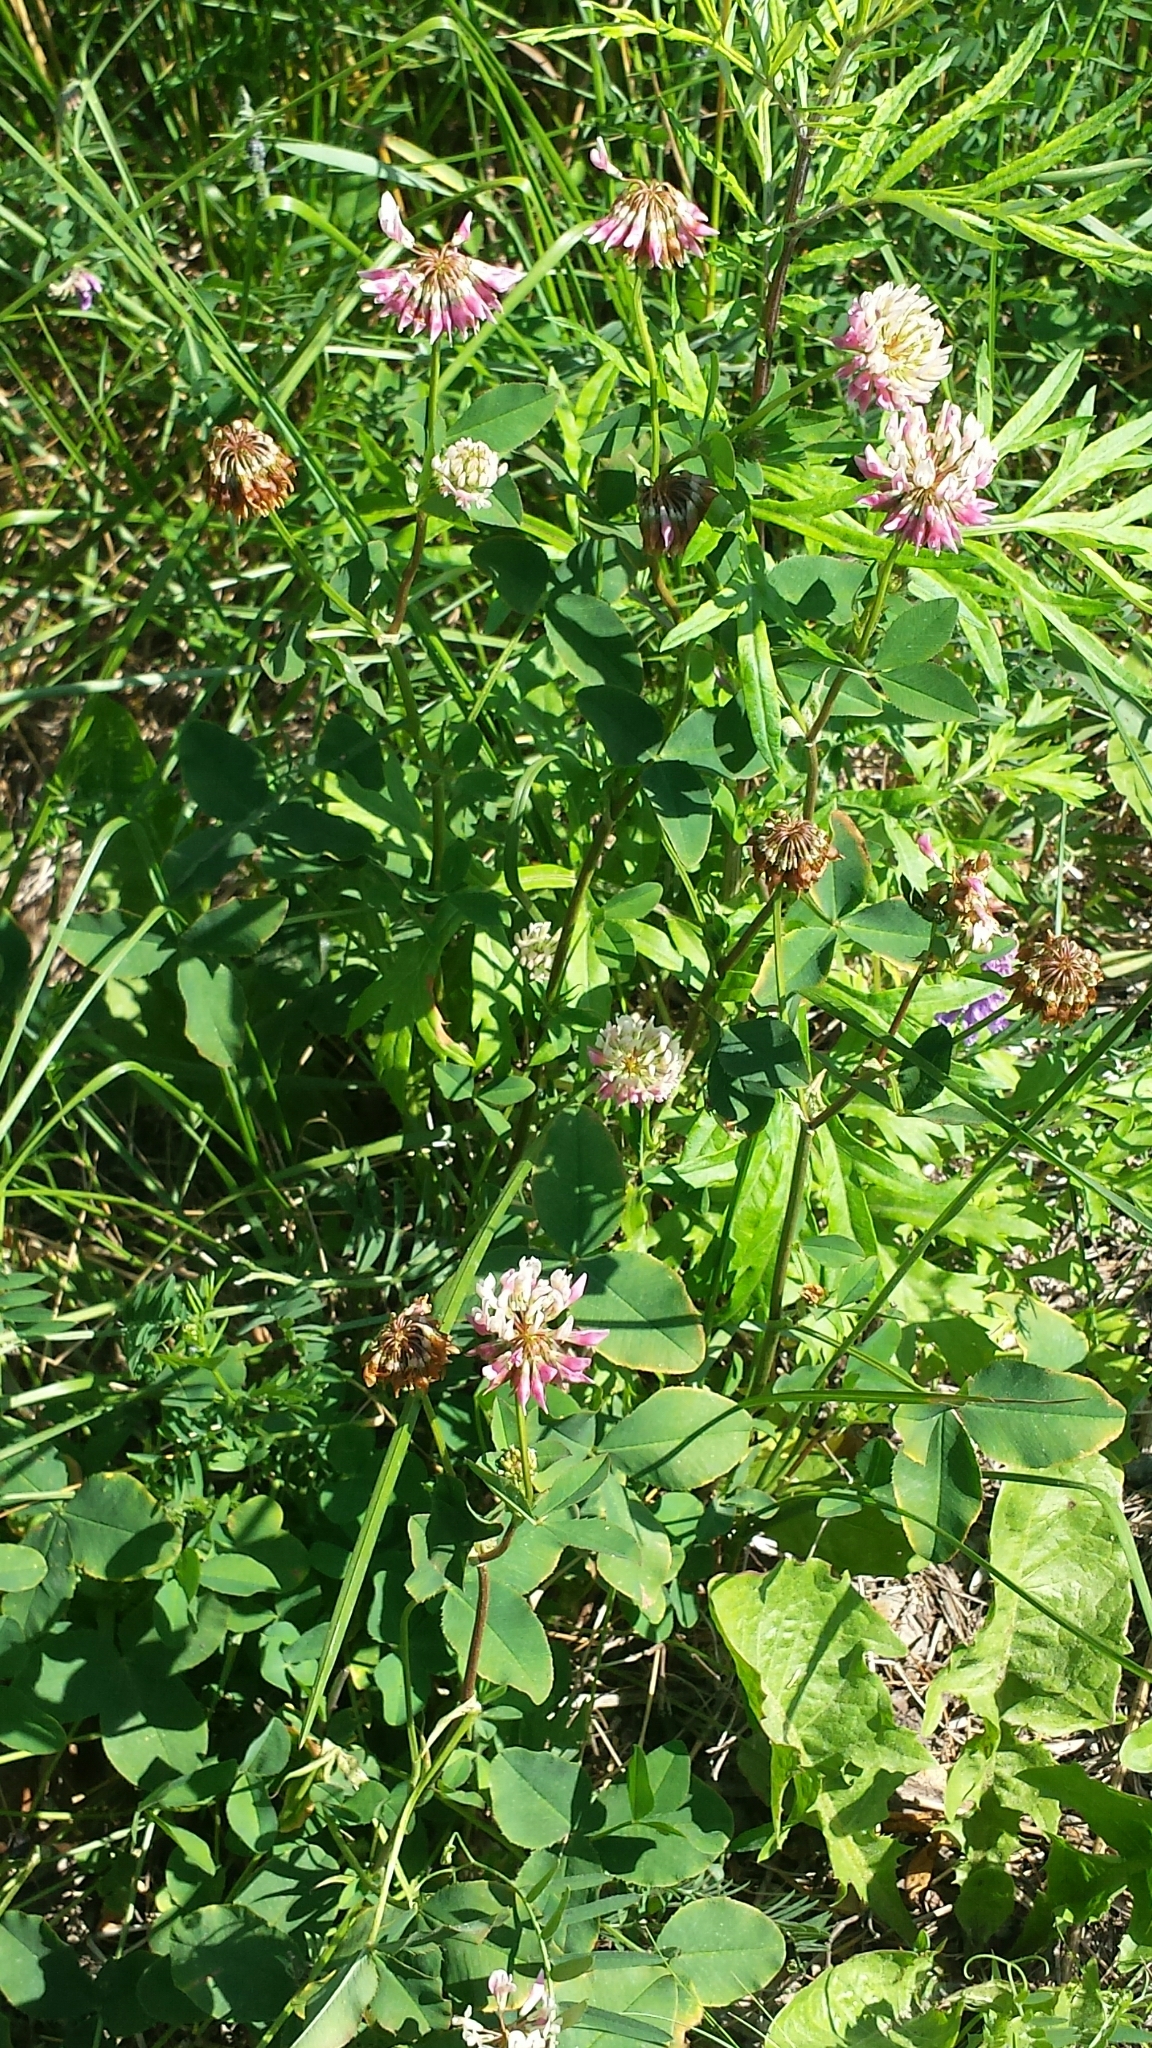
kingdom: Plantae
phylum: Tracheophyta
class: Magnoliopsida
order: Fabales
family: Fabaceae
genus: Trifolium
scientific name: Trifolium hybridum
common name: Alsike clover
